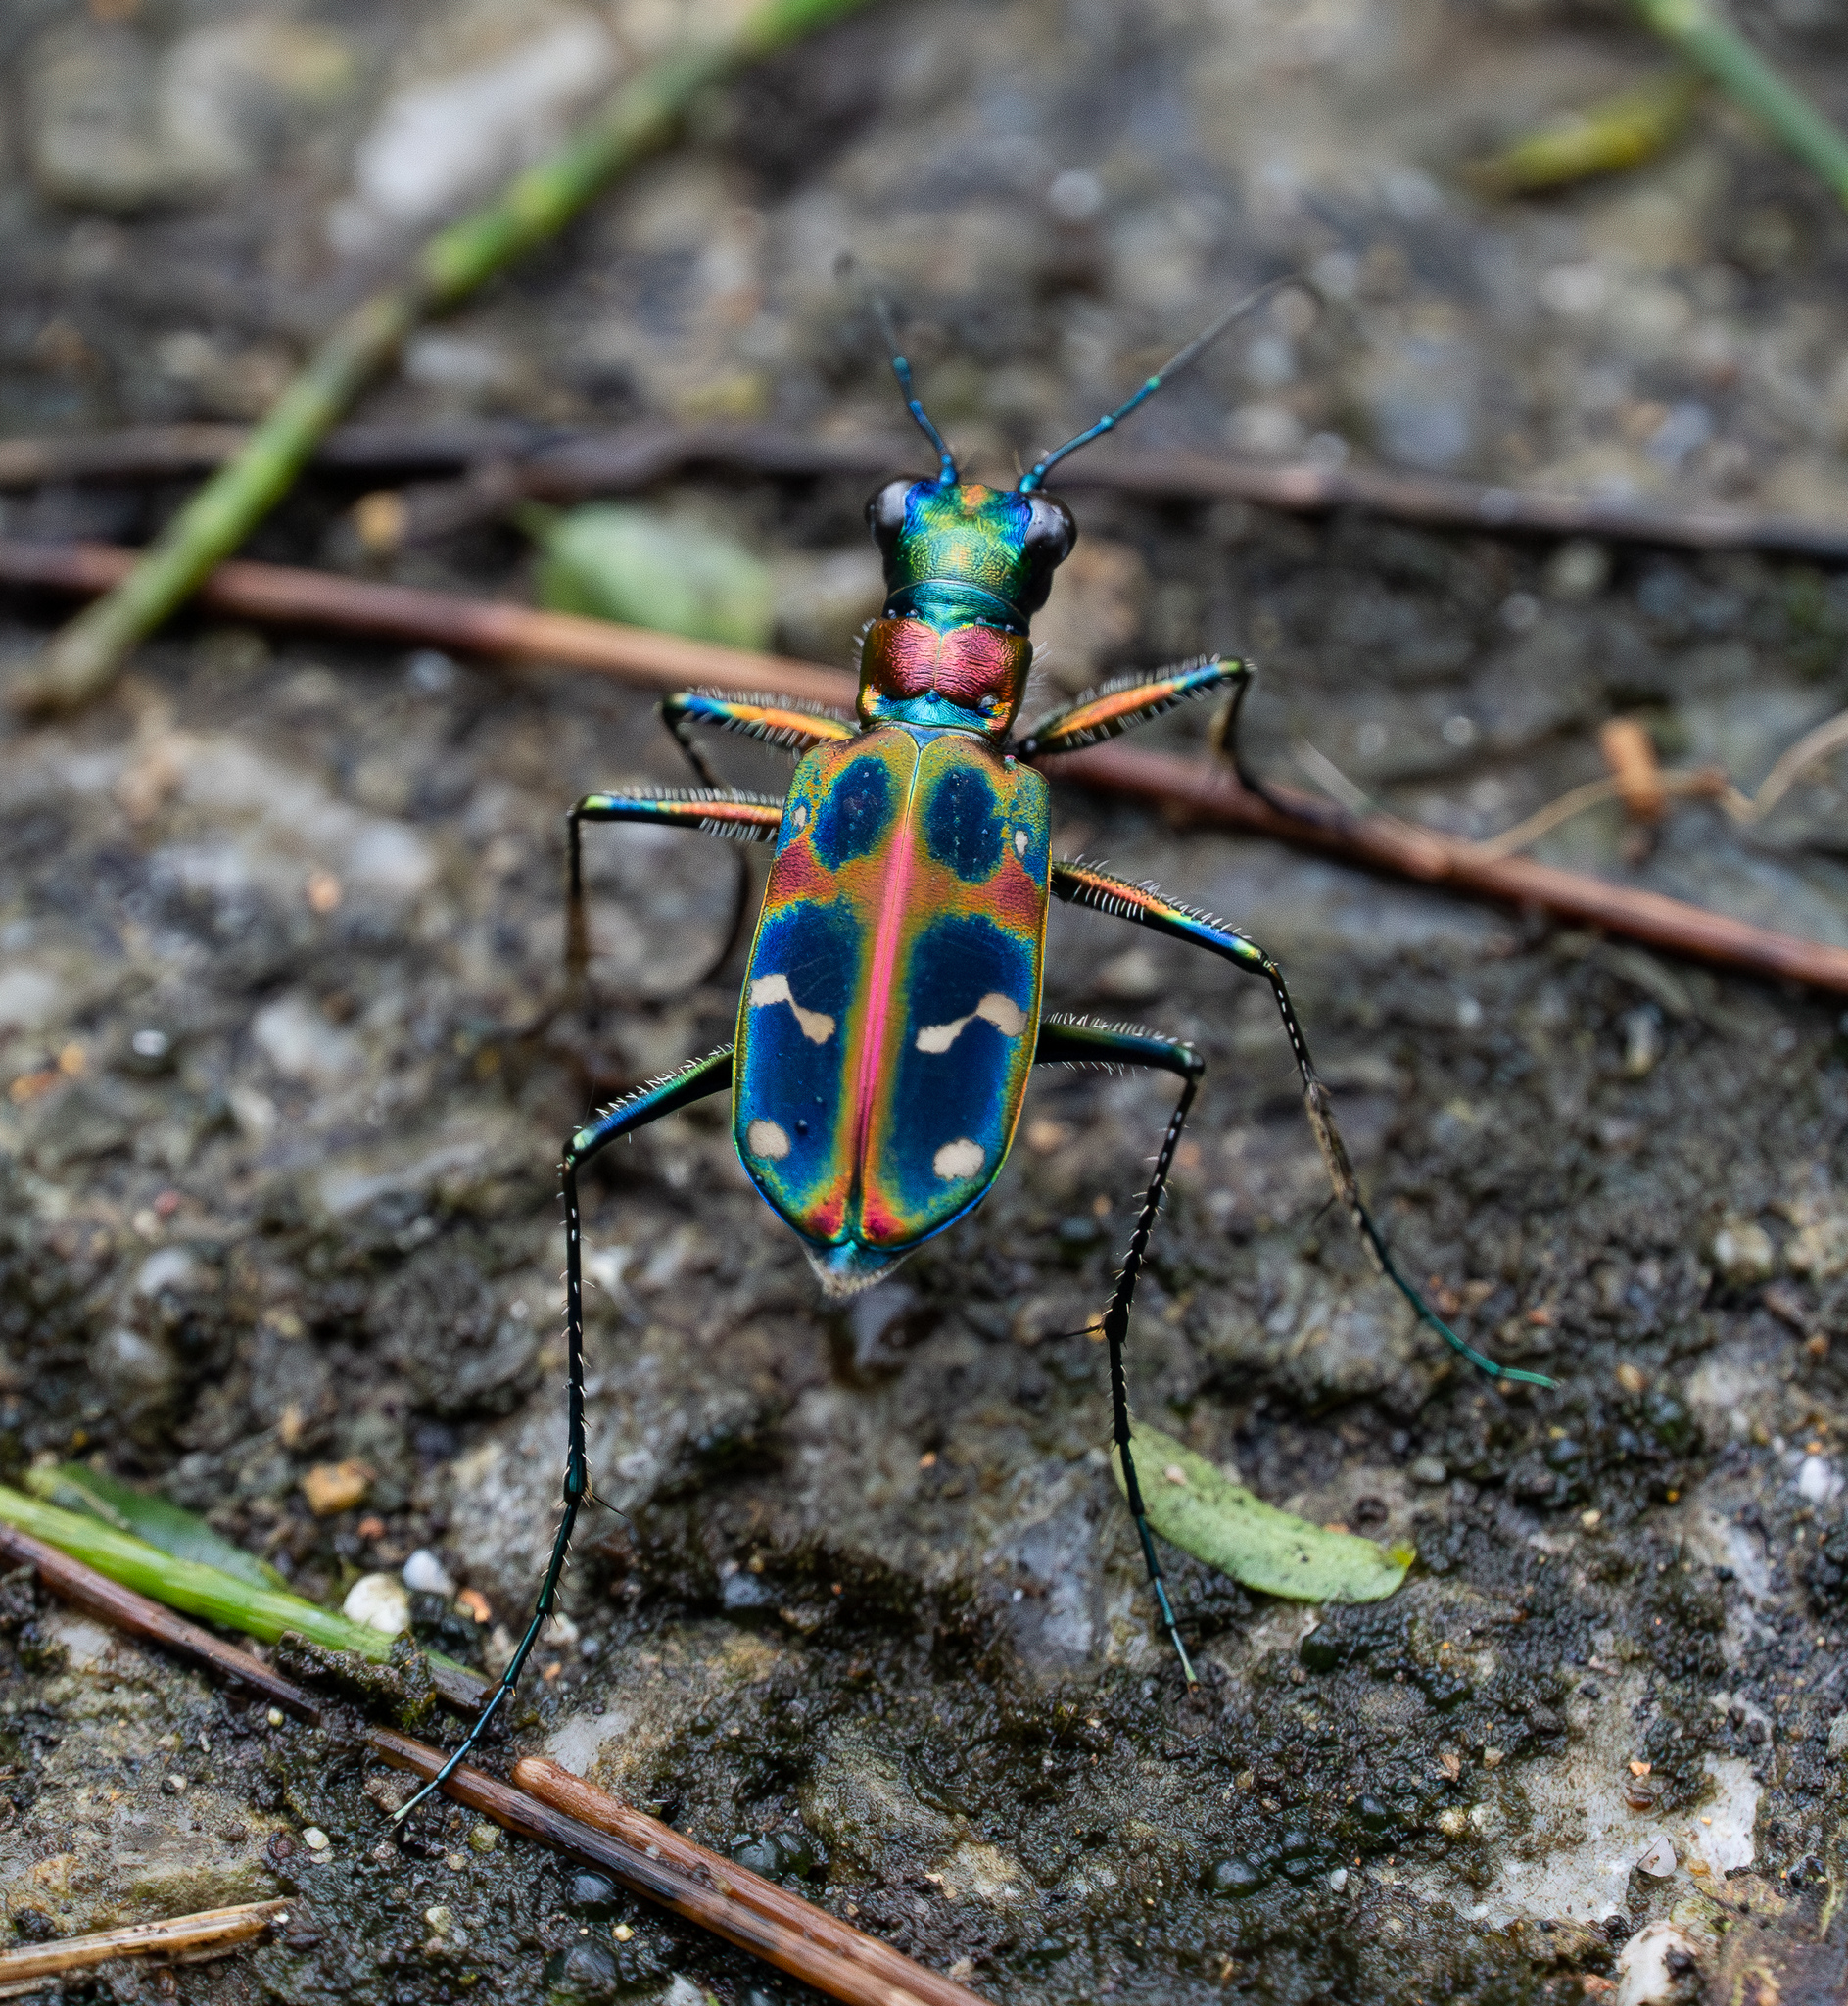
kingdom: Animalia
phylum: Arthropoda
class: Insecta
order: Coleoptera
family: Carabidae
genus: Cicindela
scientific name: Cicindela chinensis
